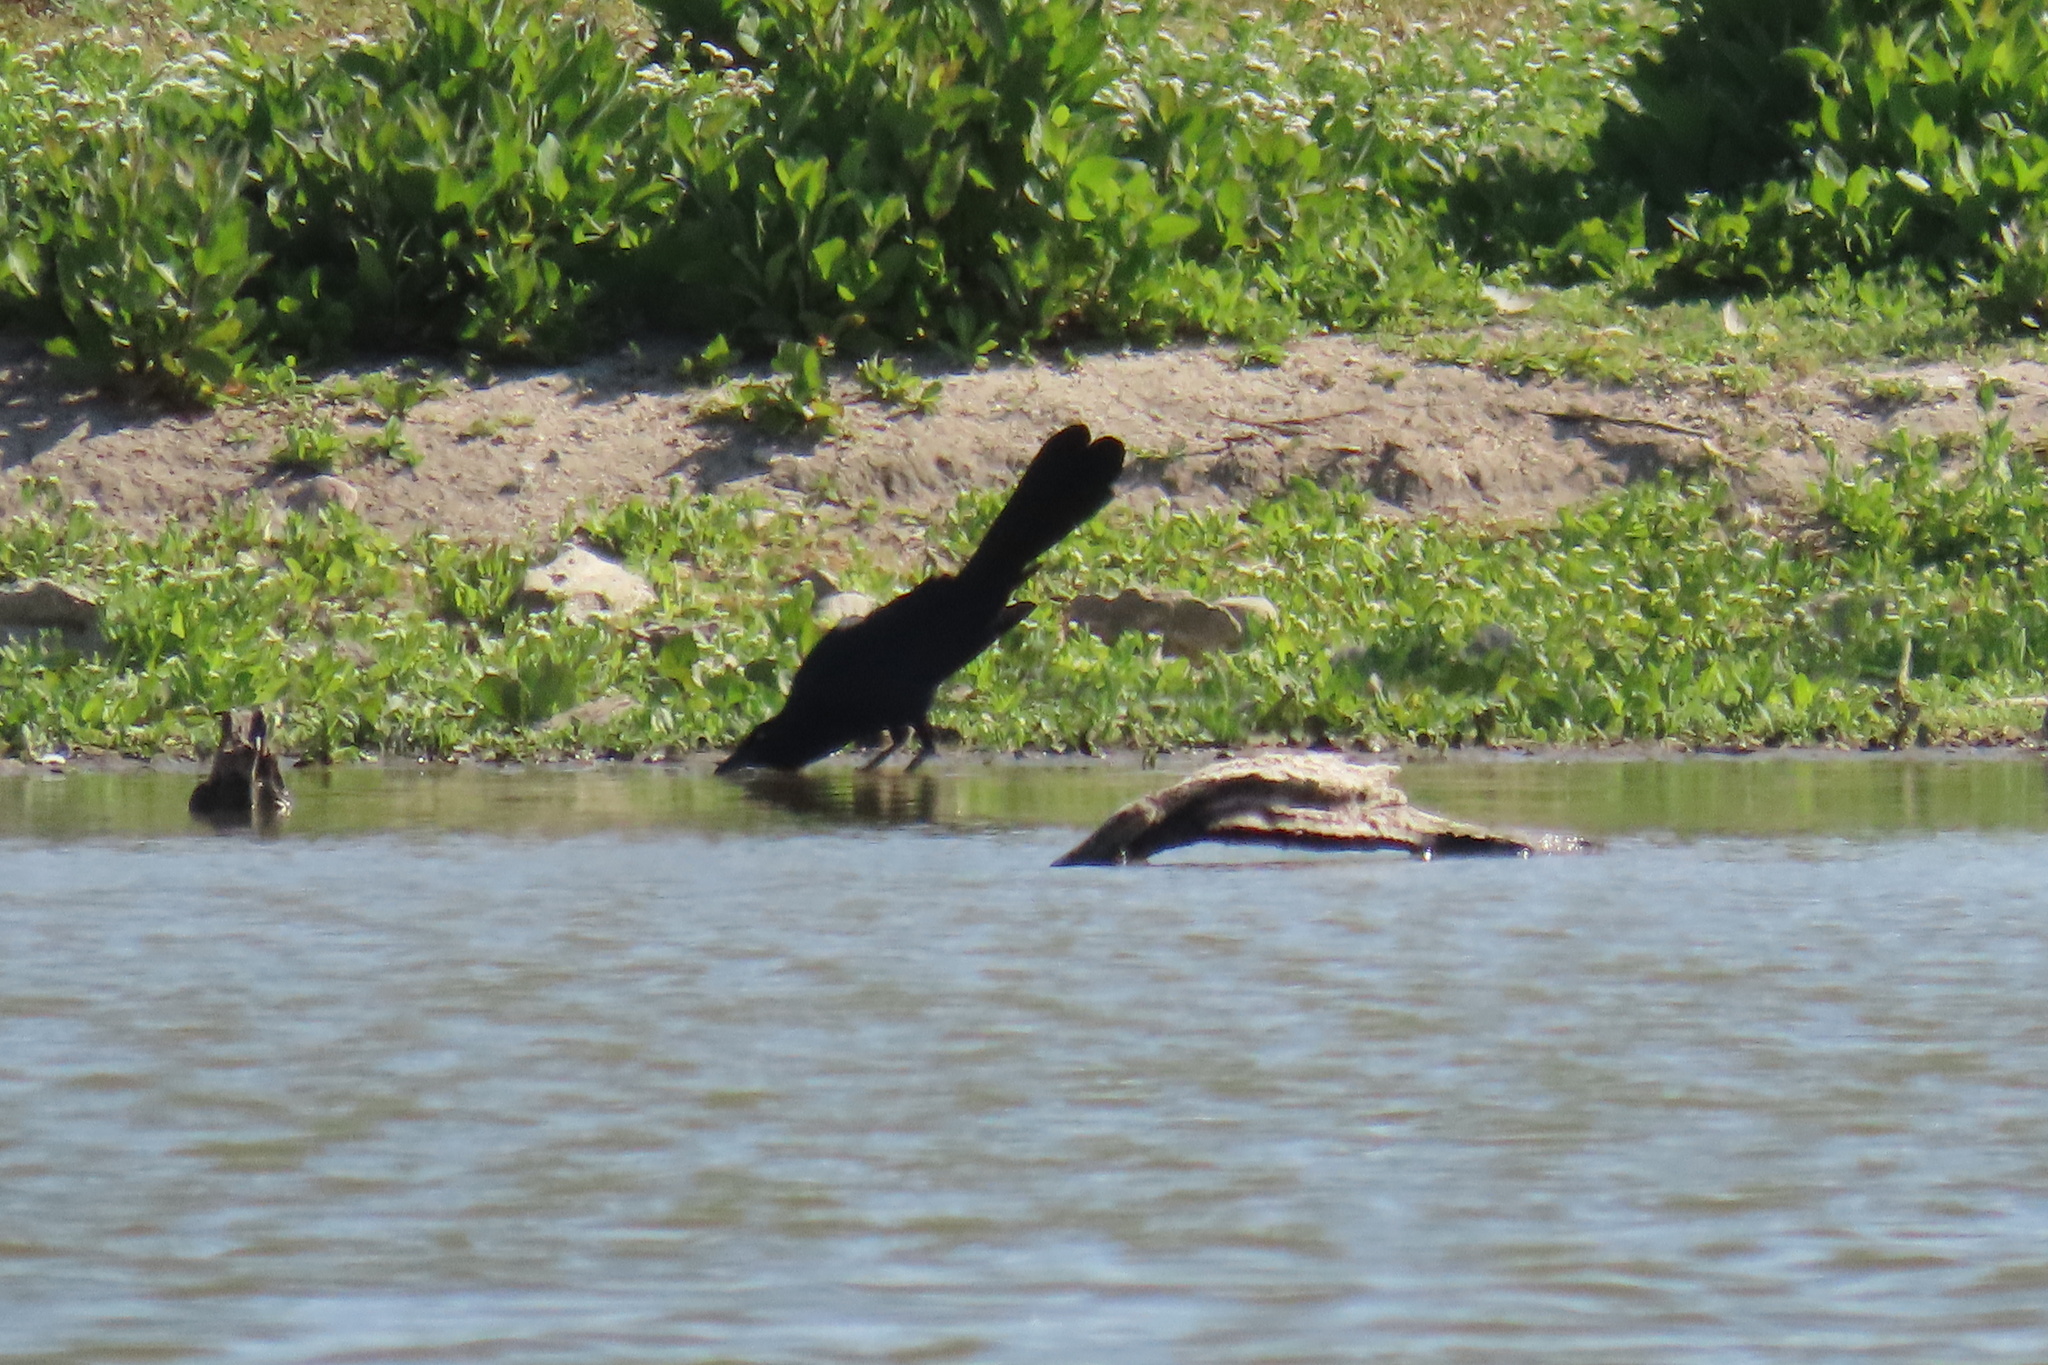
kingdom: Animalia
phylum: Chordata
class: Aves
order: Passeriformes
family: Icteridae
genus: Quiscalus
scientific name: Quiscalus mexicanus
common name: Great-tailed grackle
